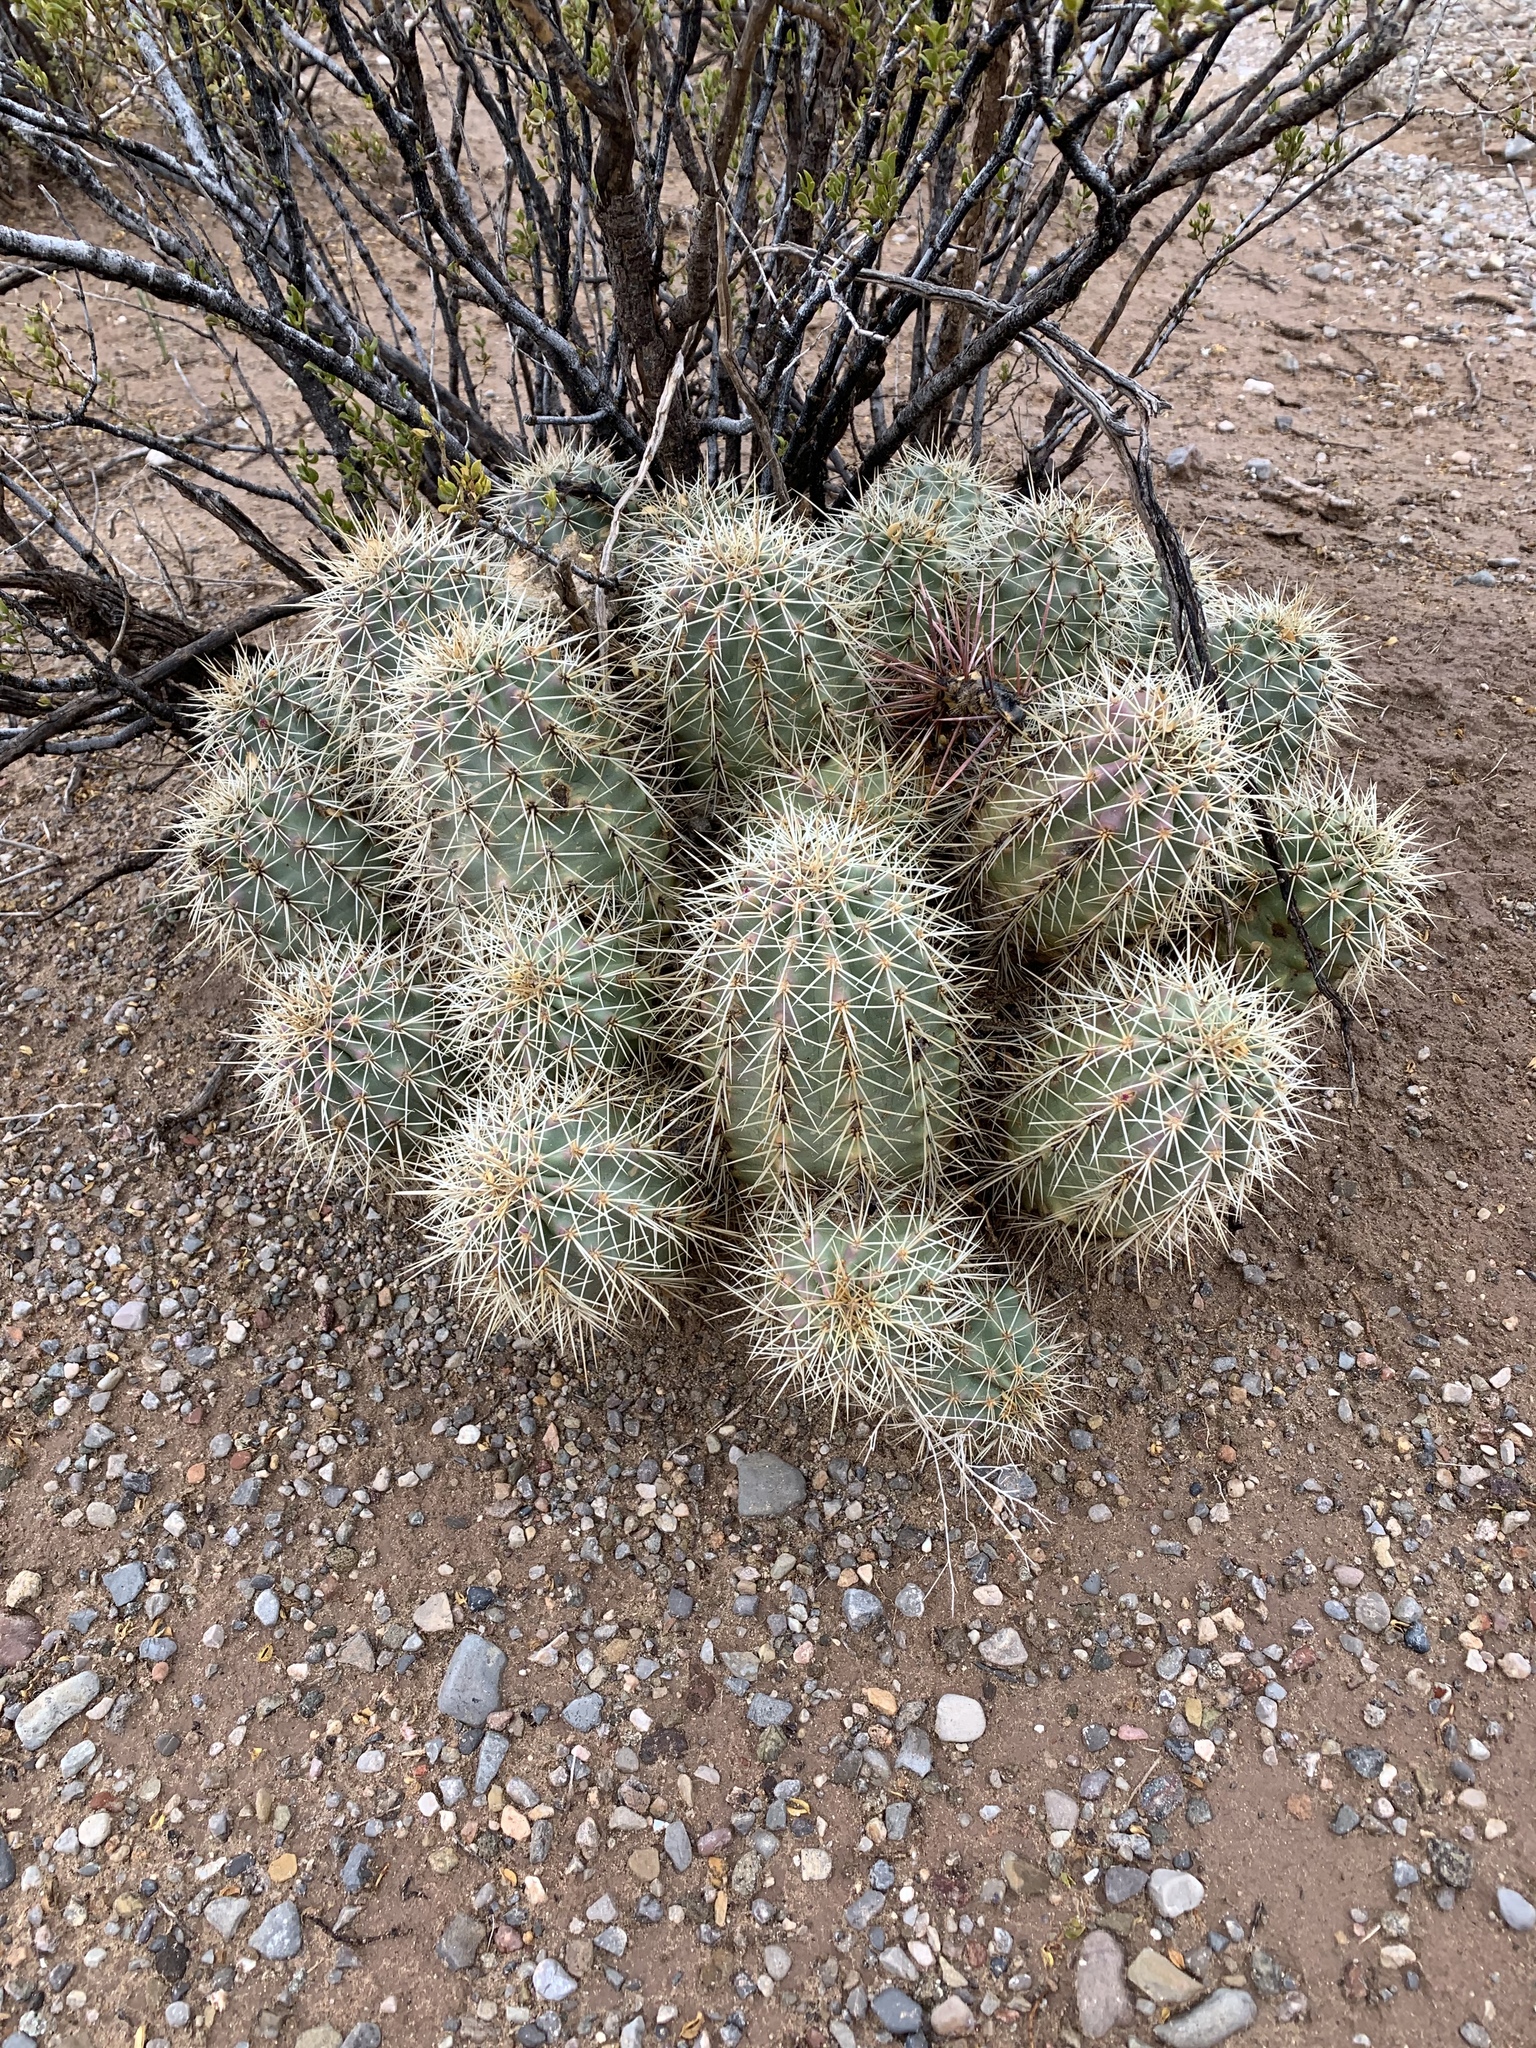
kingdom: Plantae
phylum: Tracheophyta
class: Magnoliopsida
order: Caryophyllales
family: Cactaceae
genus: Echinocereus
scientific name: Echinocereus coccineus
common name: Scarlet hedgehog cactus
